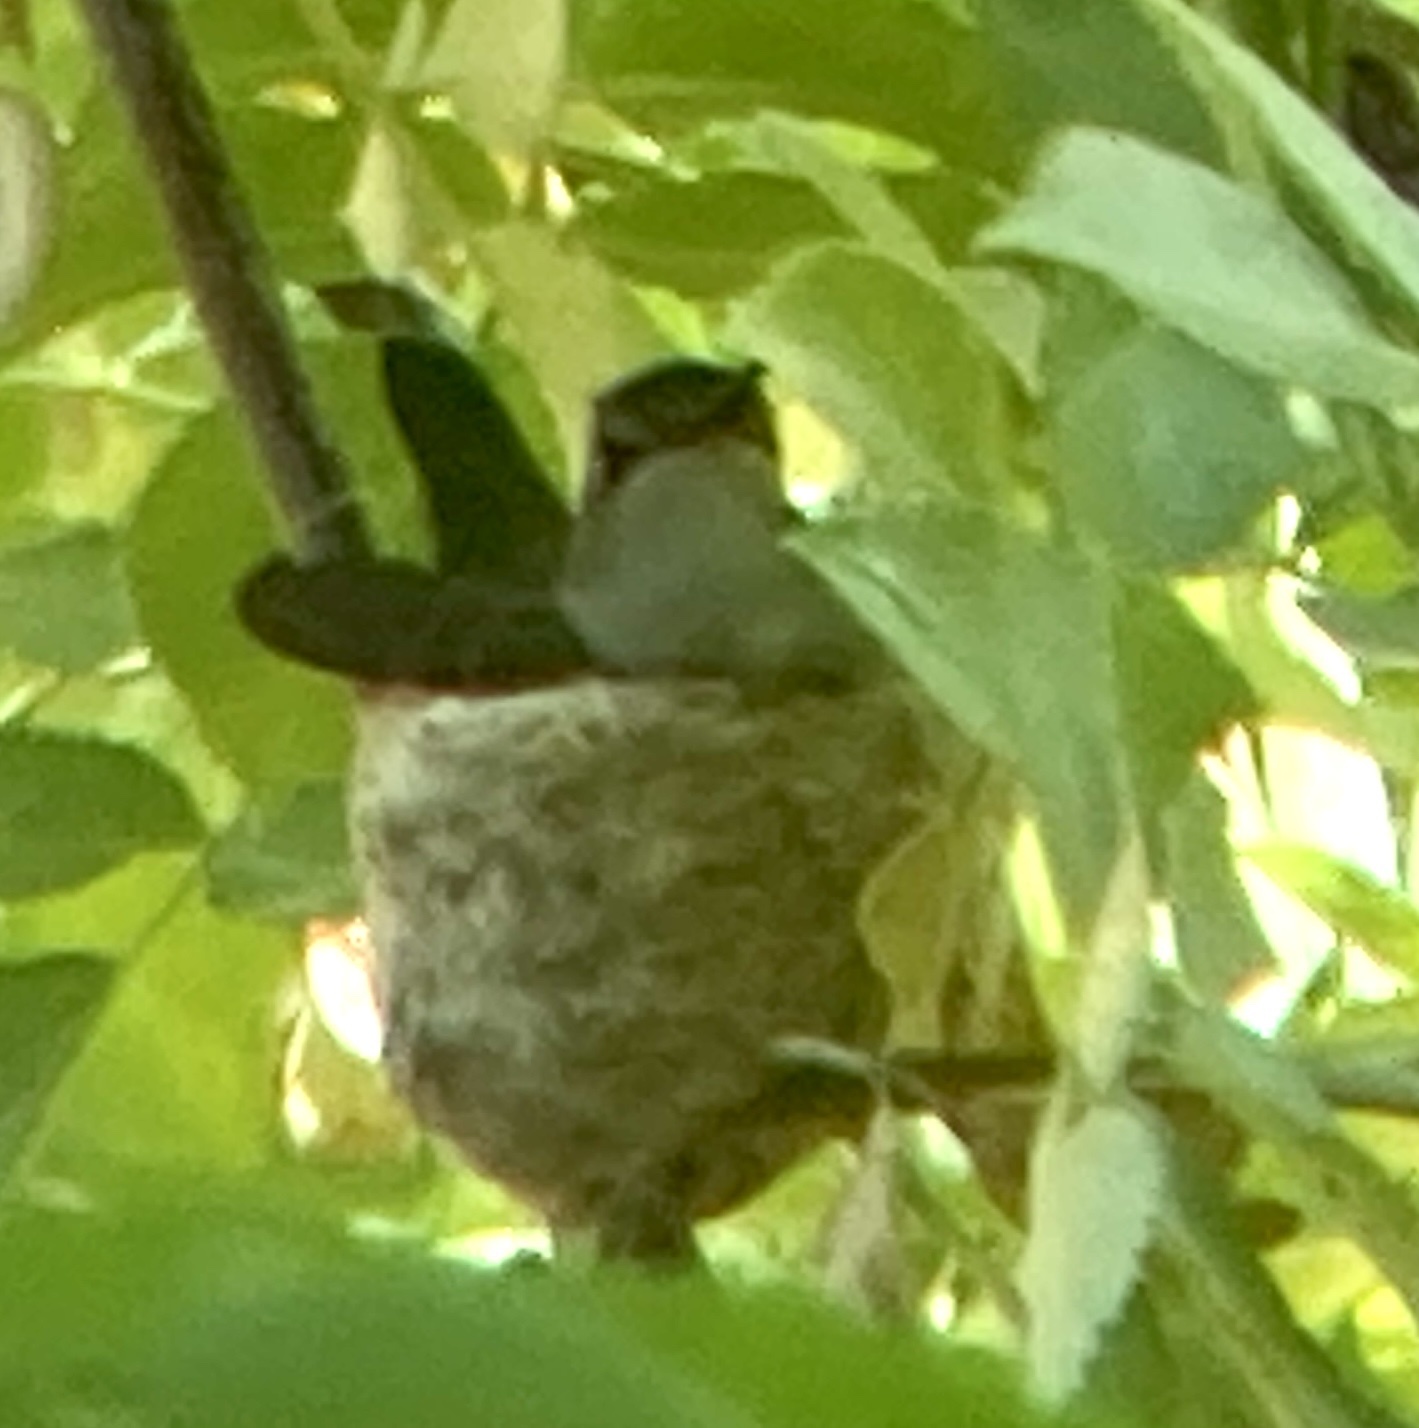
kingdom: Animalia
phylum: Chordata
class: Aves
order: Apodiformes
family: Trochilidae
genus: Archilochus
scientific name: Archilochus alexandri
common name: Black-chinned hummingbird
